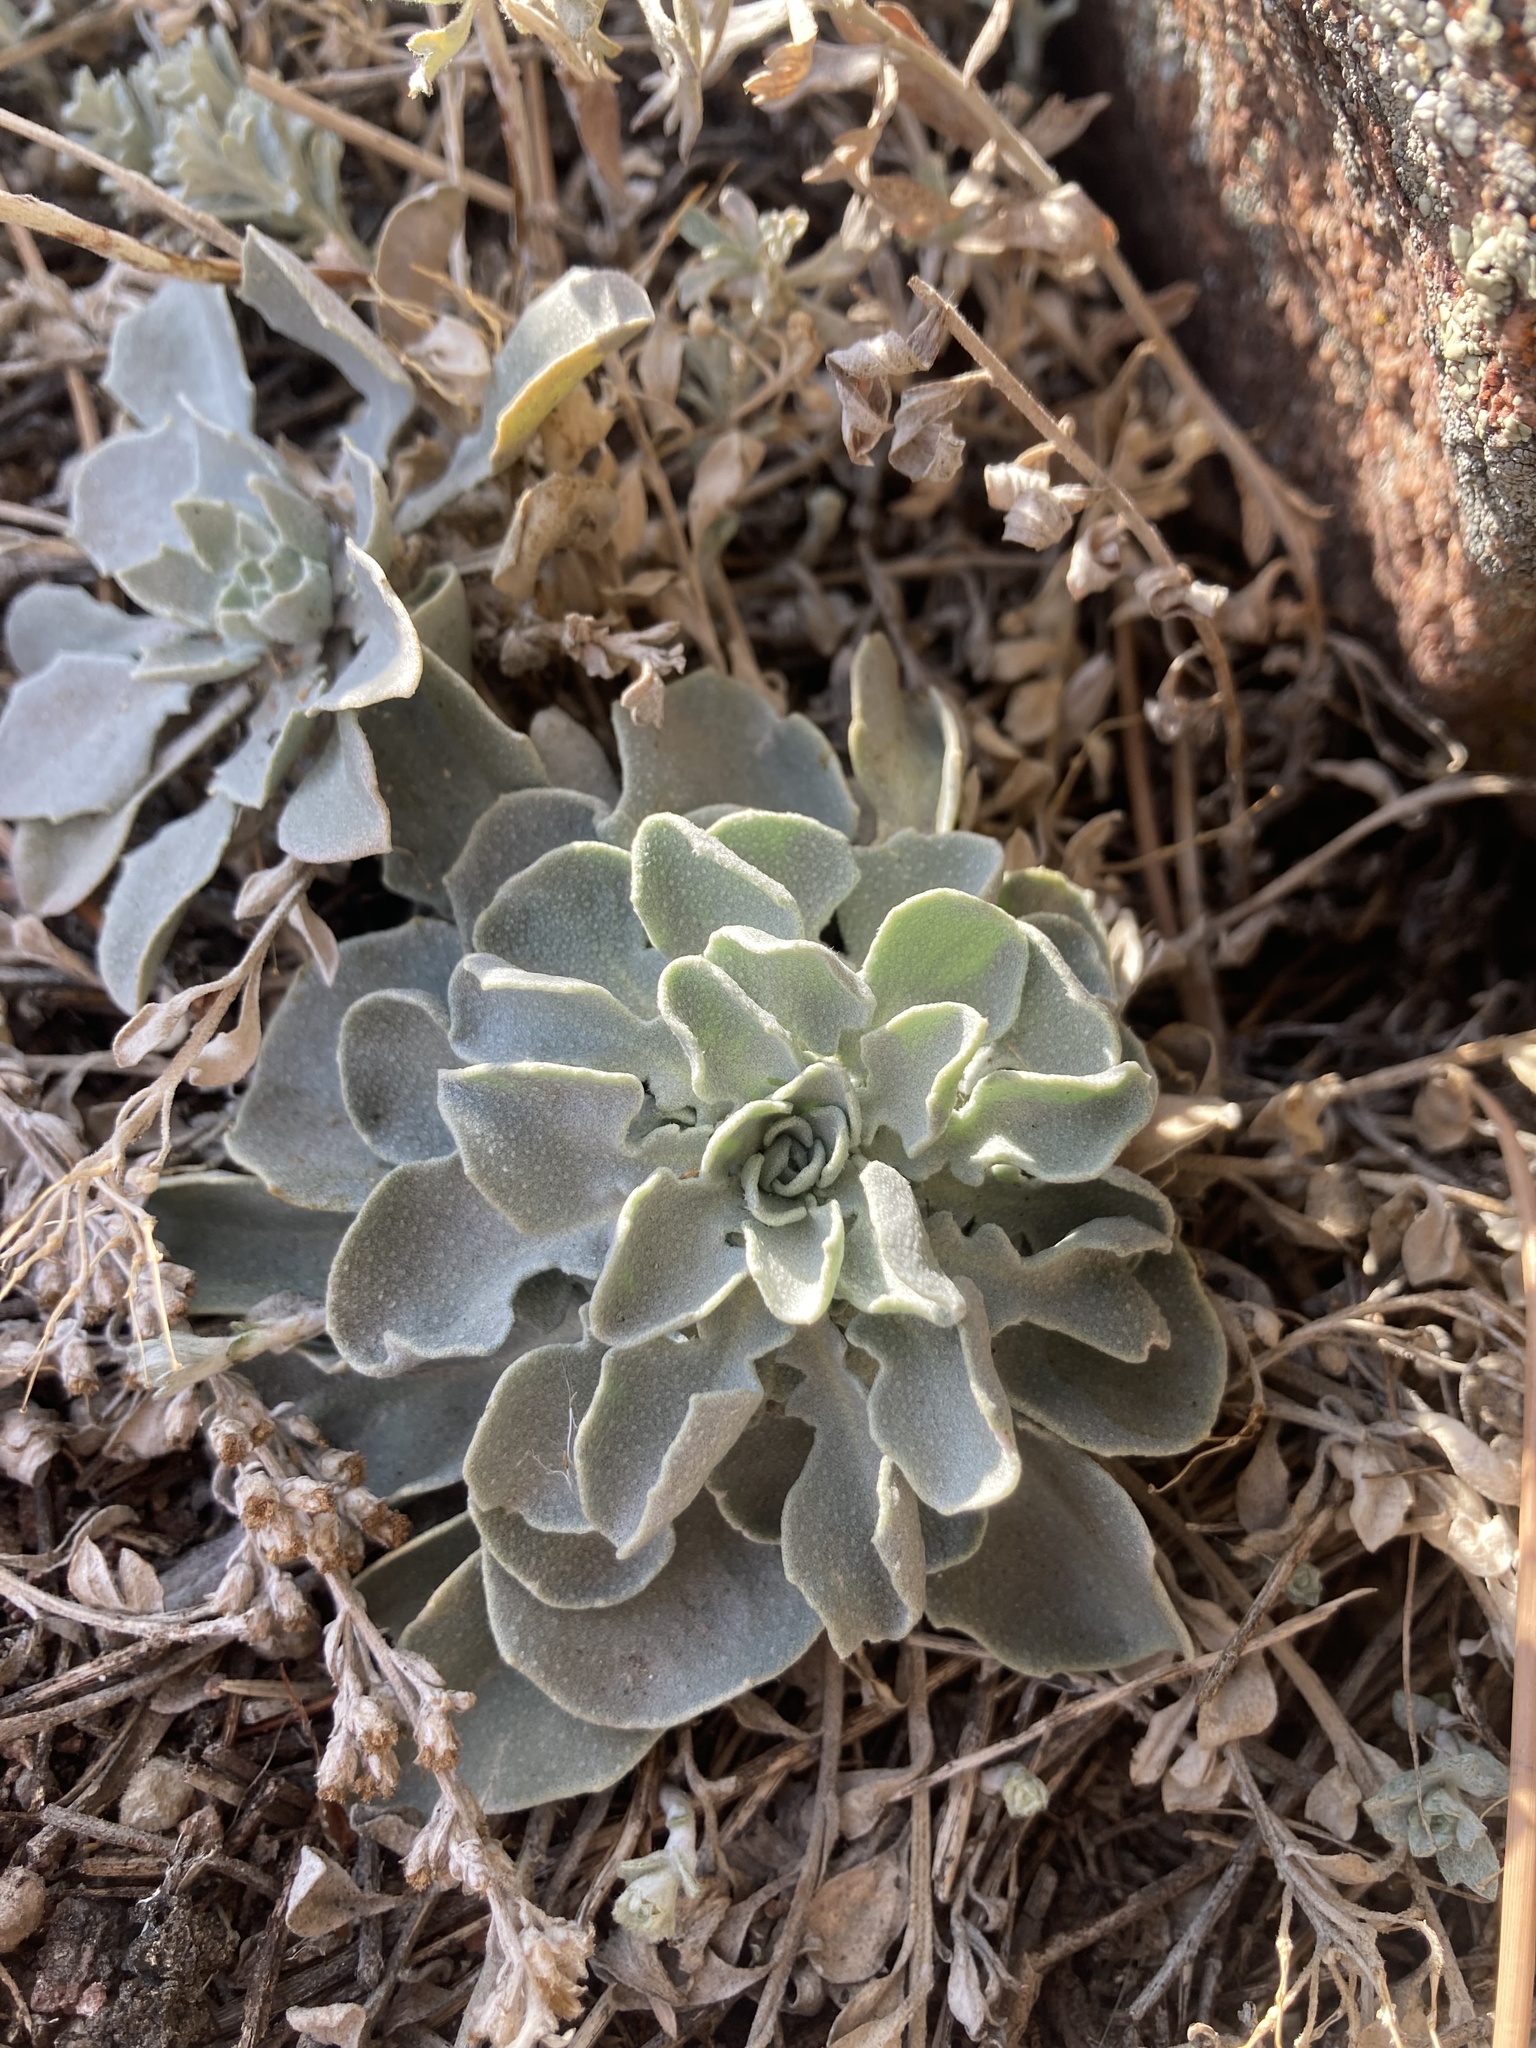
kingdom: Plantae
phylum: Tracheophyta
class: Magnoliopsida
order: Brassicales
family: Brassicaceae
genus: Physaria
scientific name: Physaria vitulifera
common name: Roundtrip twinpod
